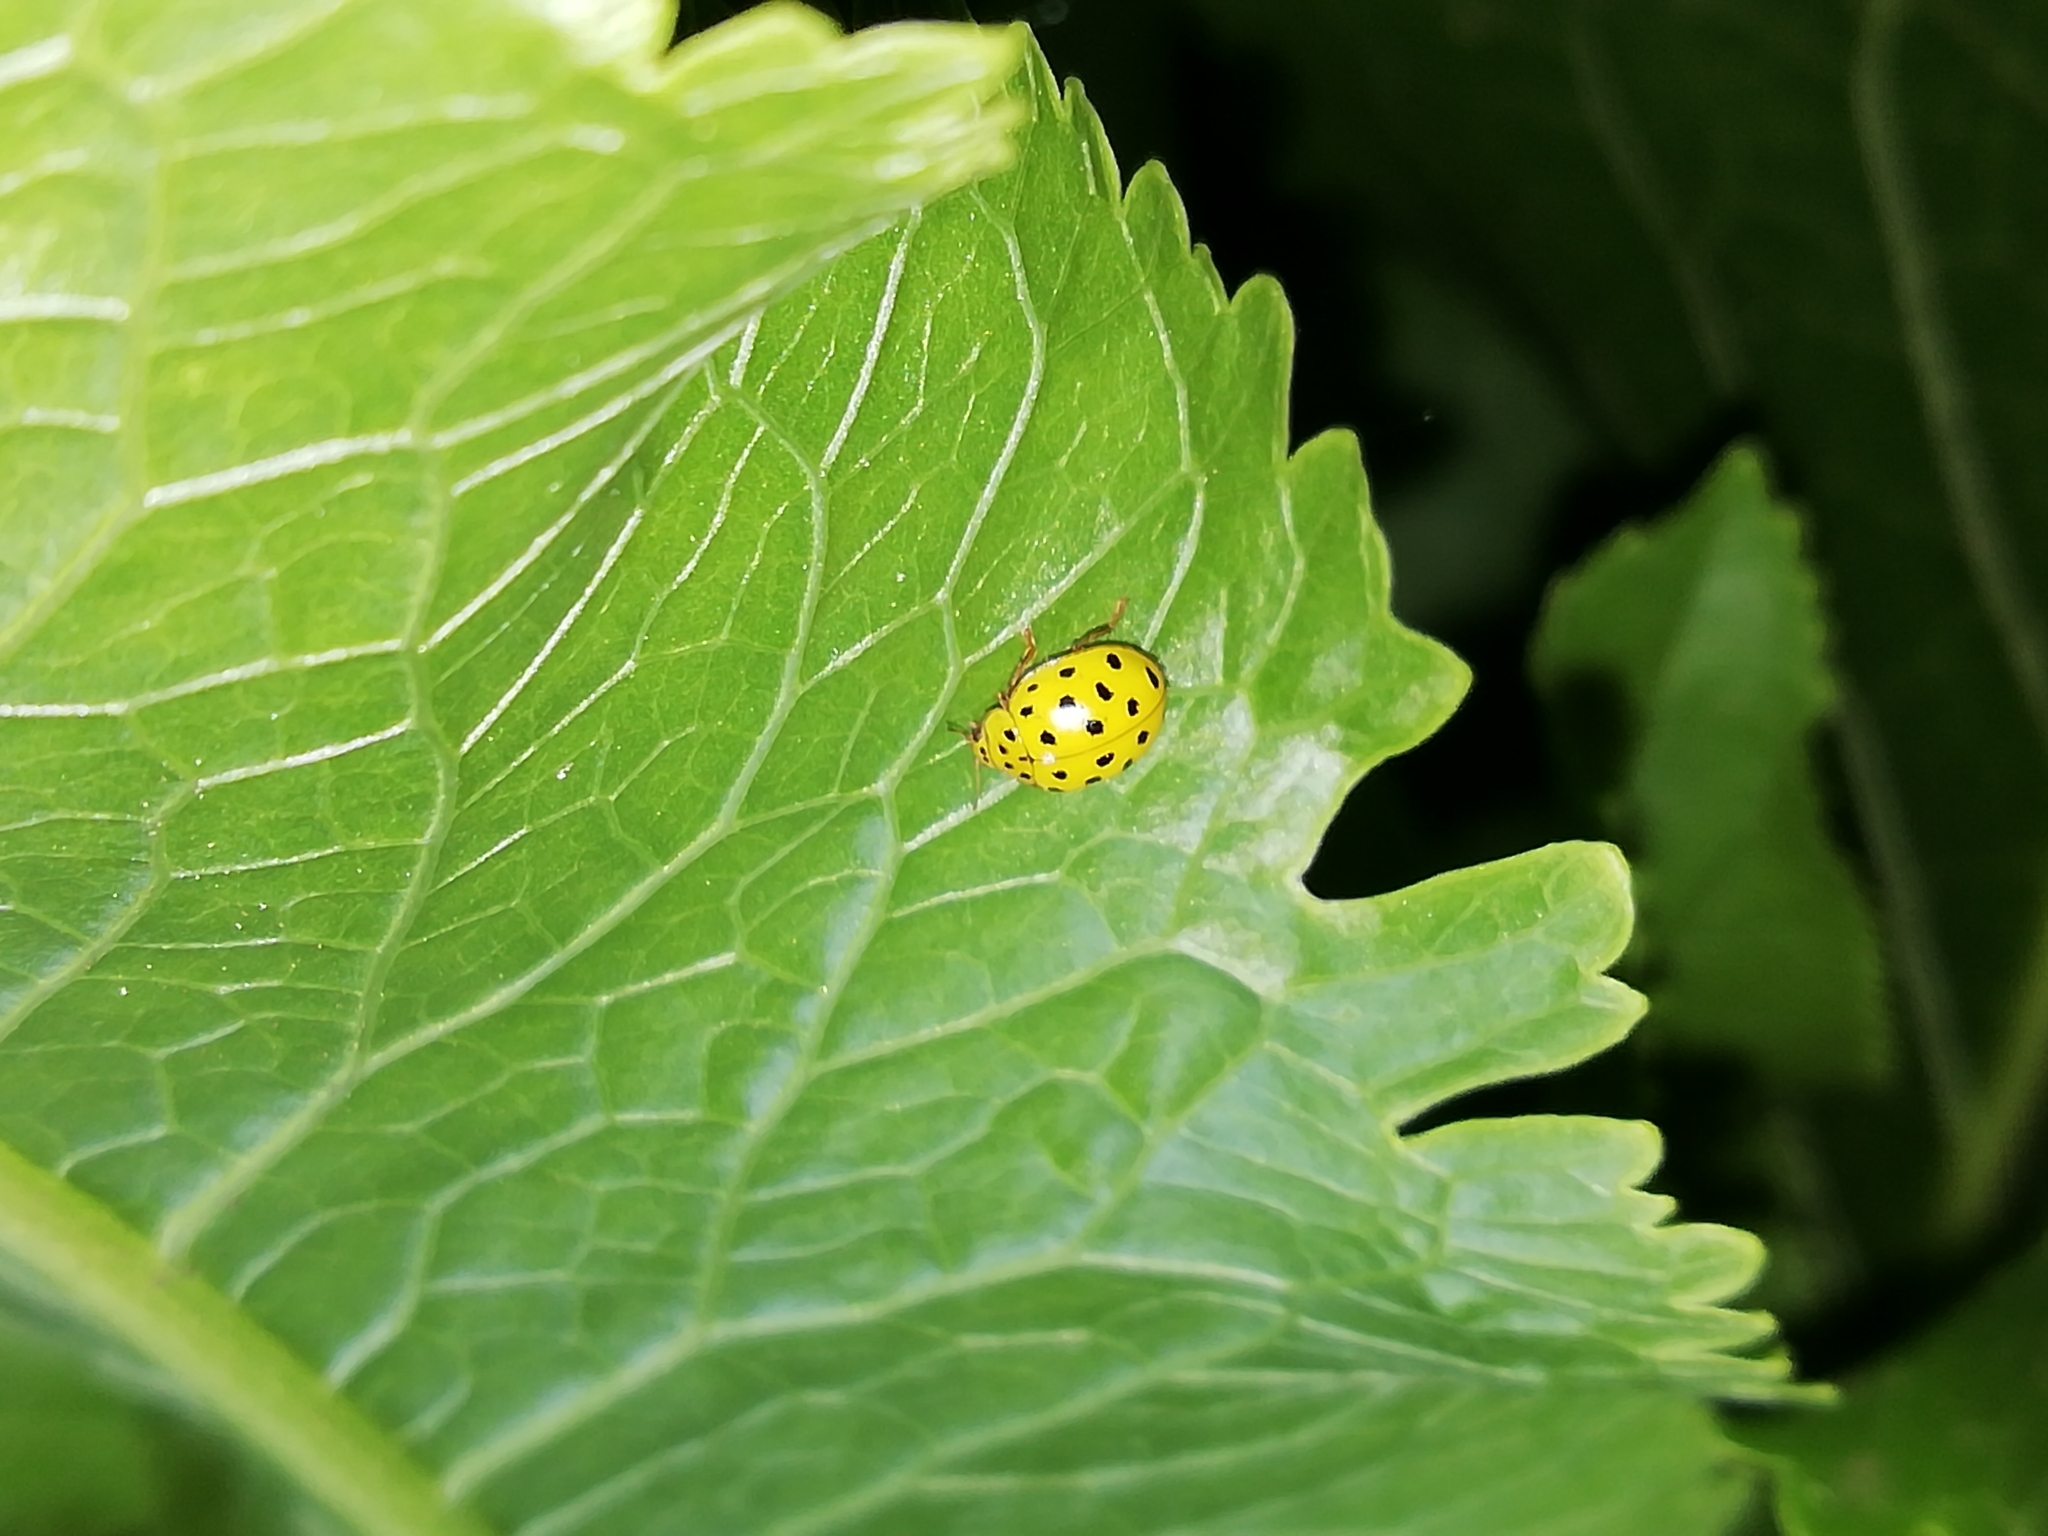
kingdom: Animalia
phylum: Arthropoda
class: Insecta
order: Coleoptera
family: Coccinellidae
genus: Psyllobora
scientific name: Psyllobora vigintiduopunctata
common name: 22-spot ladybird
